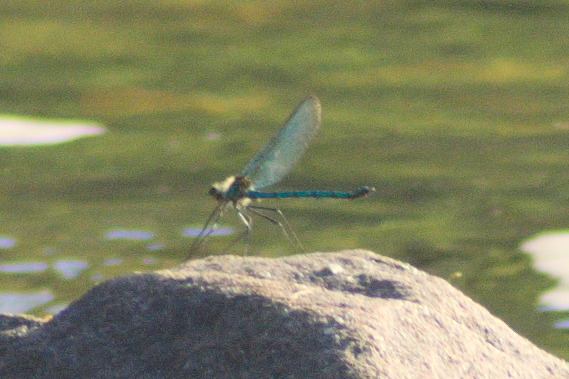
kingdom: Animalia
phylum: Arthropoda
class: Insecta
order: Odonata
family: Calopterygidae
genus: Calopteryx
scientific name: Calopteryx angustipennis
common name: Appalachian jewelwing
